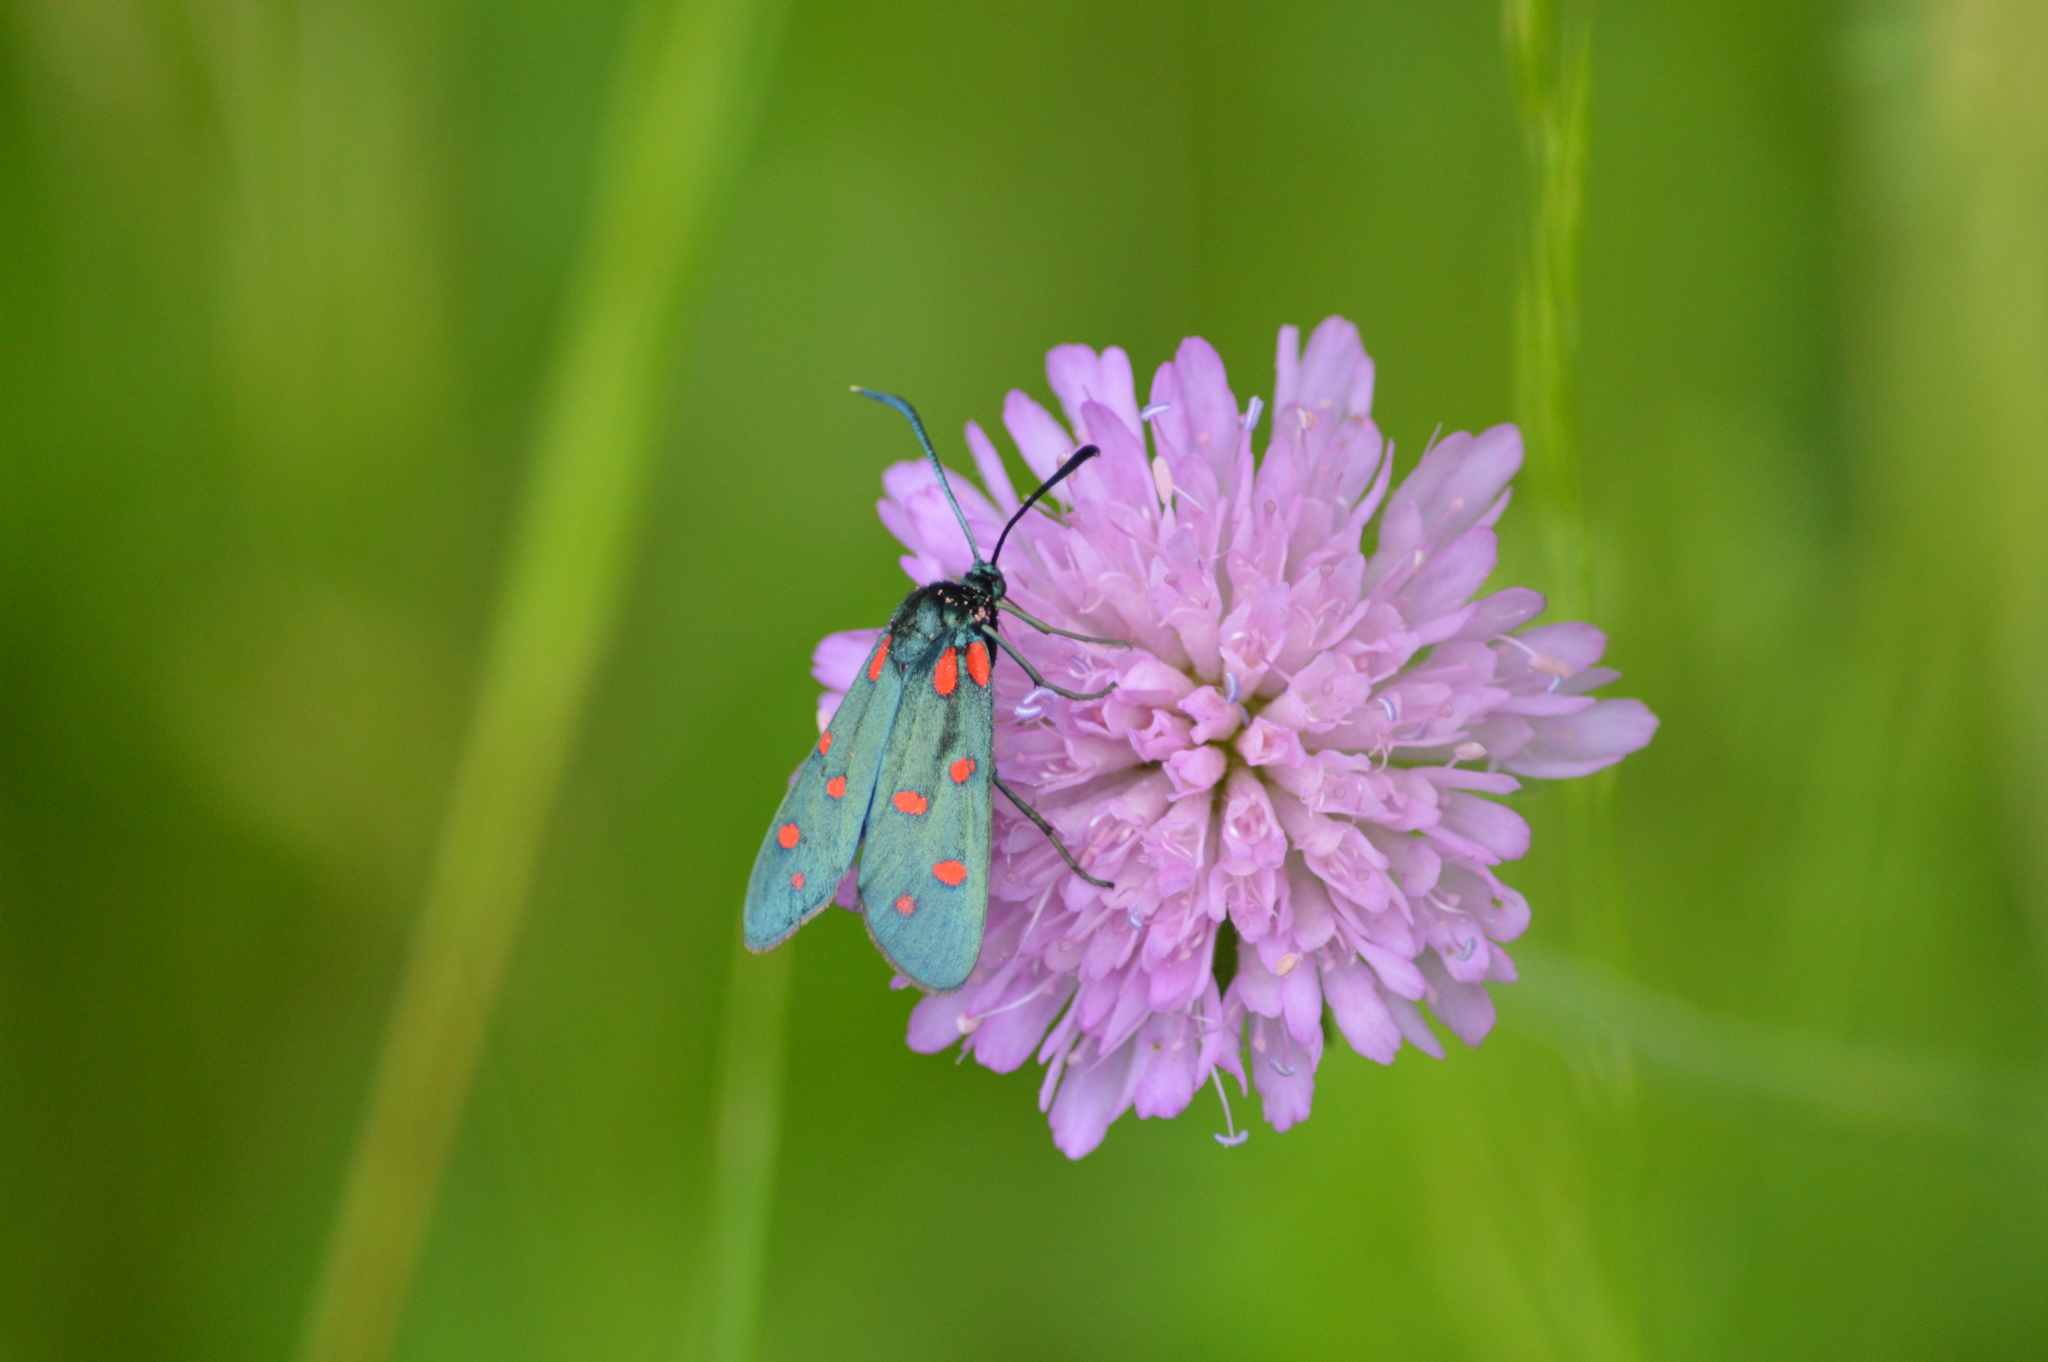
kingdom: Animalia
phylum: Arthropoda
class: Insecta
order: Lepidoptera
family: Zygaenidae
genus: Zygaena
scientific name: Zygaena transalpina
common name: Southern six spot burnet
